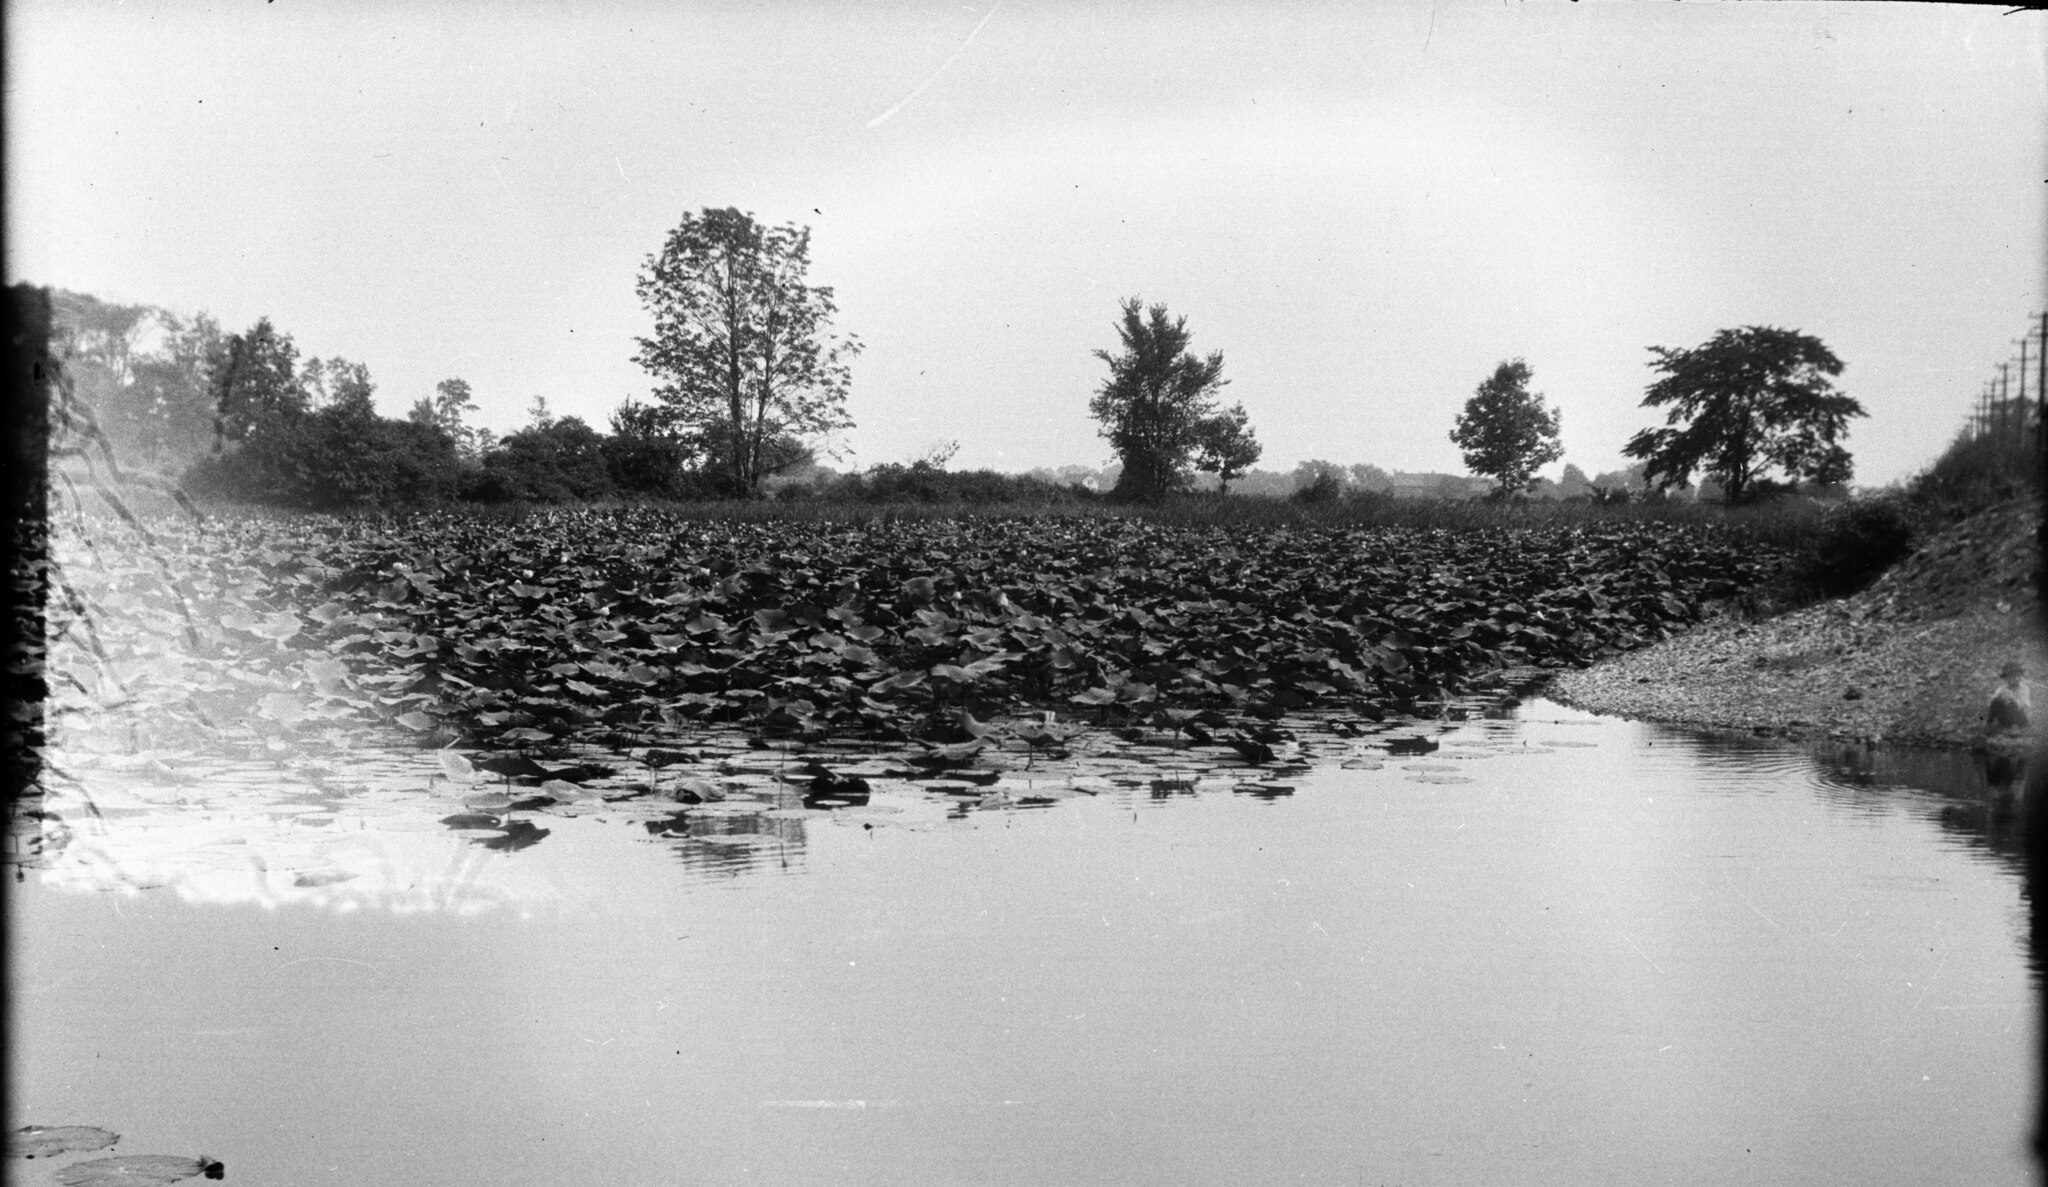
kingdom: Plantae
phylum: Tracheophyta
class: Magnoliopsida
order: Proteales
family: Nelumbonaceae
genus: Nelumbo
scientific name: Nelumbo lutea
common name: American lotus
